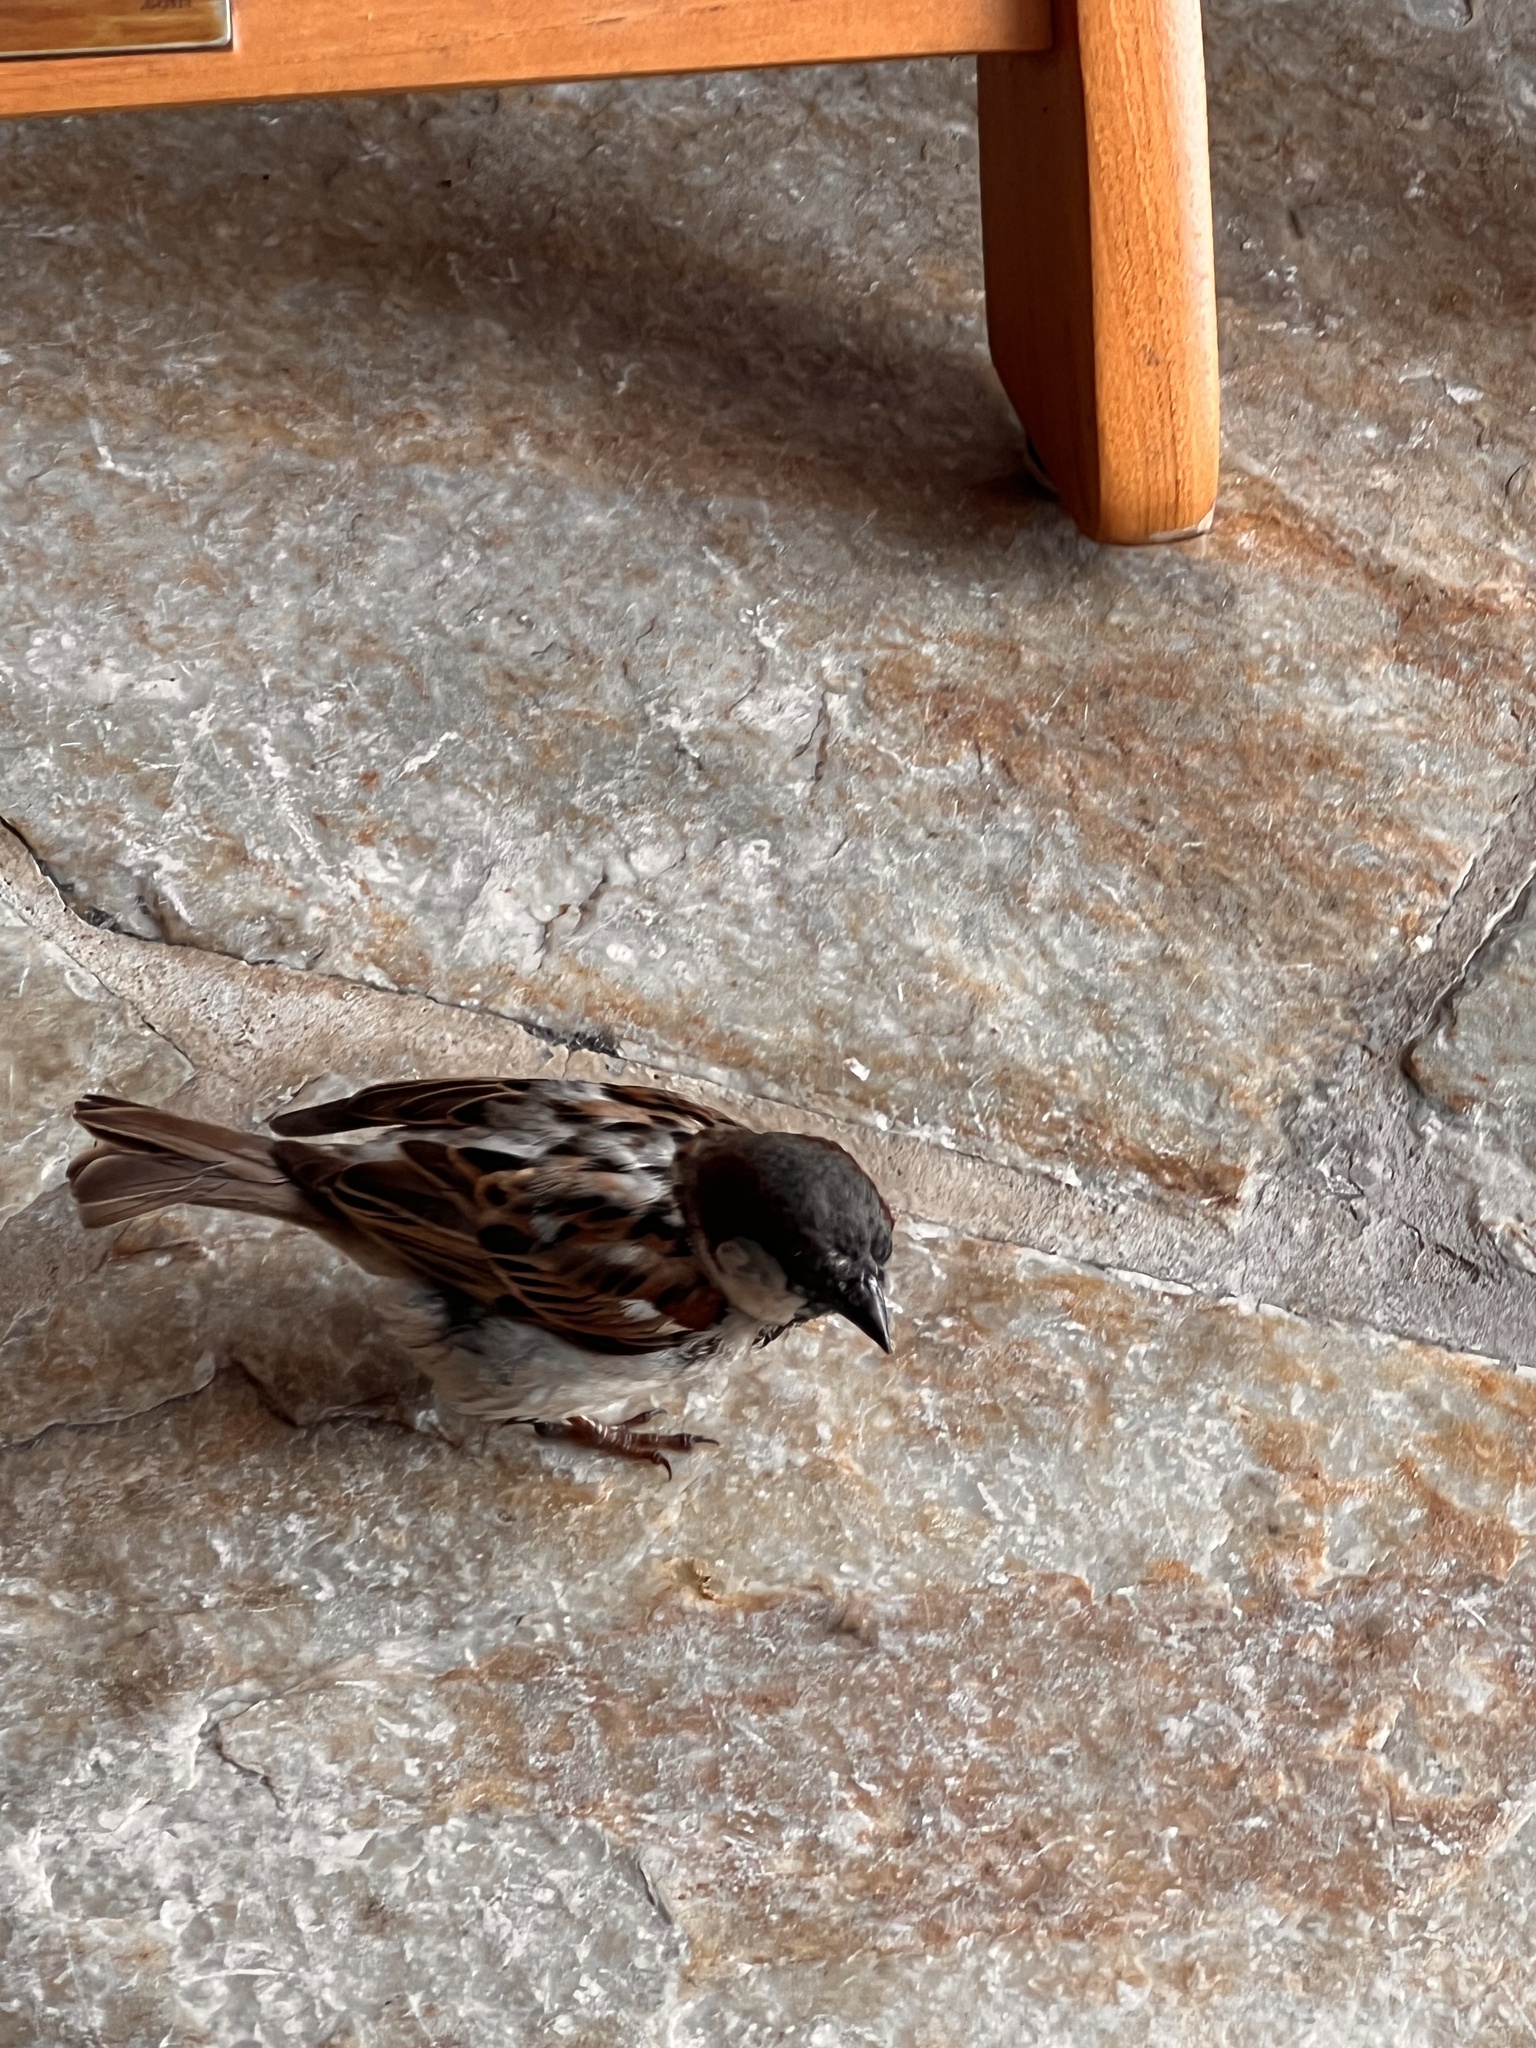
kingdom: Animalia
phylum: Chordata
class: Aves
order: Passeriformes
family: Passeridae
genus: Passer
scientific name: Passer domesticus
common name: House sparrow
